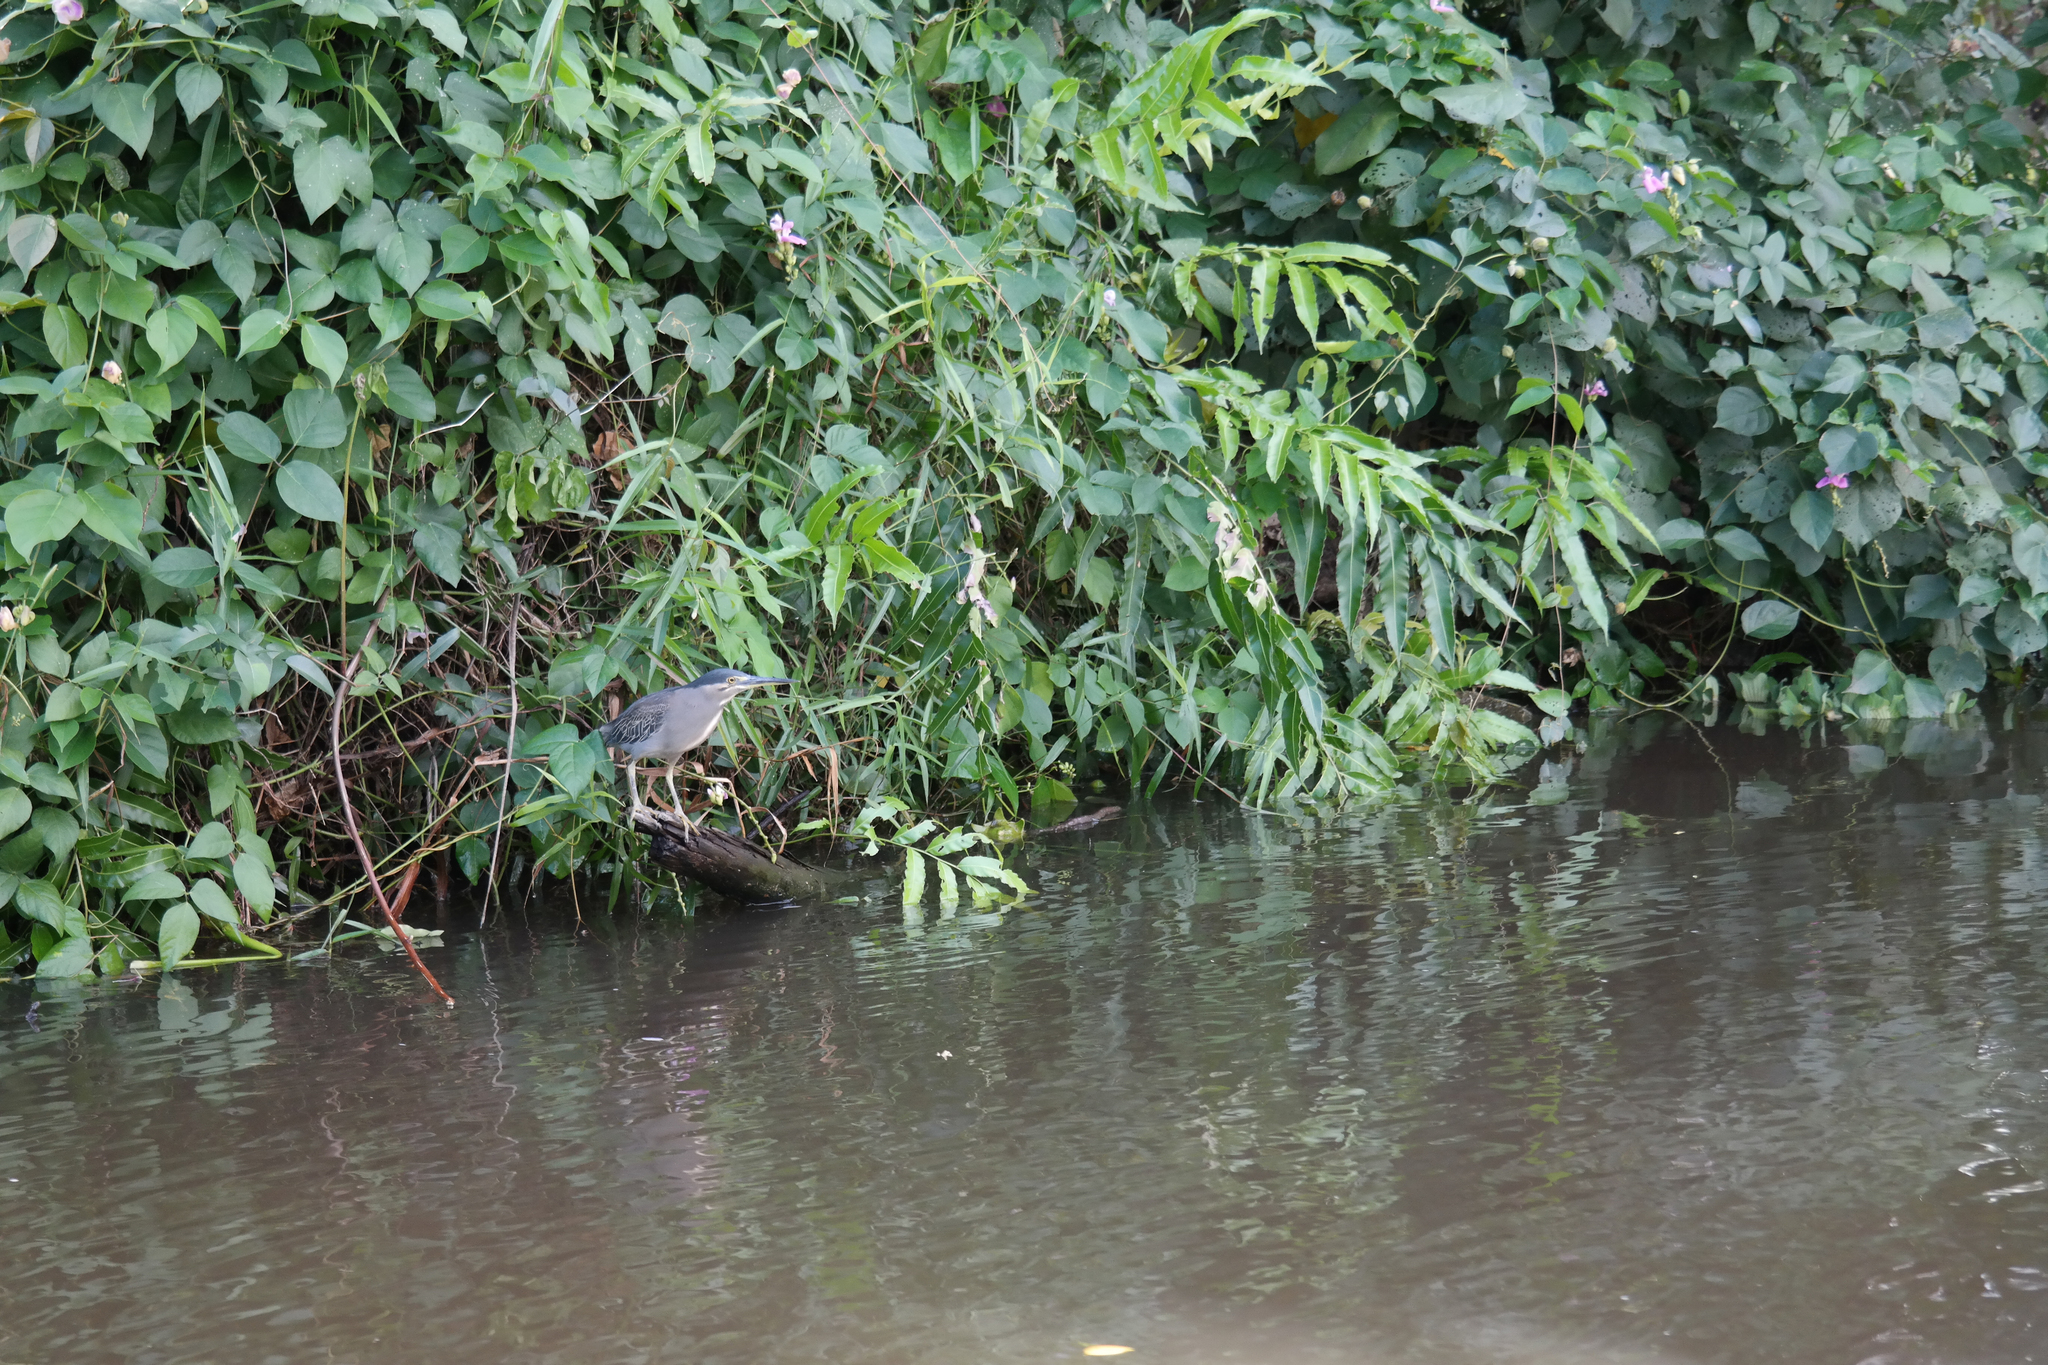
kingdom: Animalia
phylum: Chordata
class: Aves
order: Pelecaniformes
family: Ardeidae
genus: Butorides
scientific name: Butorides striata
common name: Striated heron
